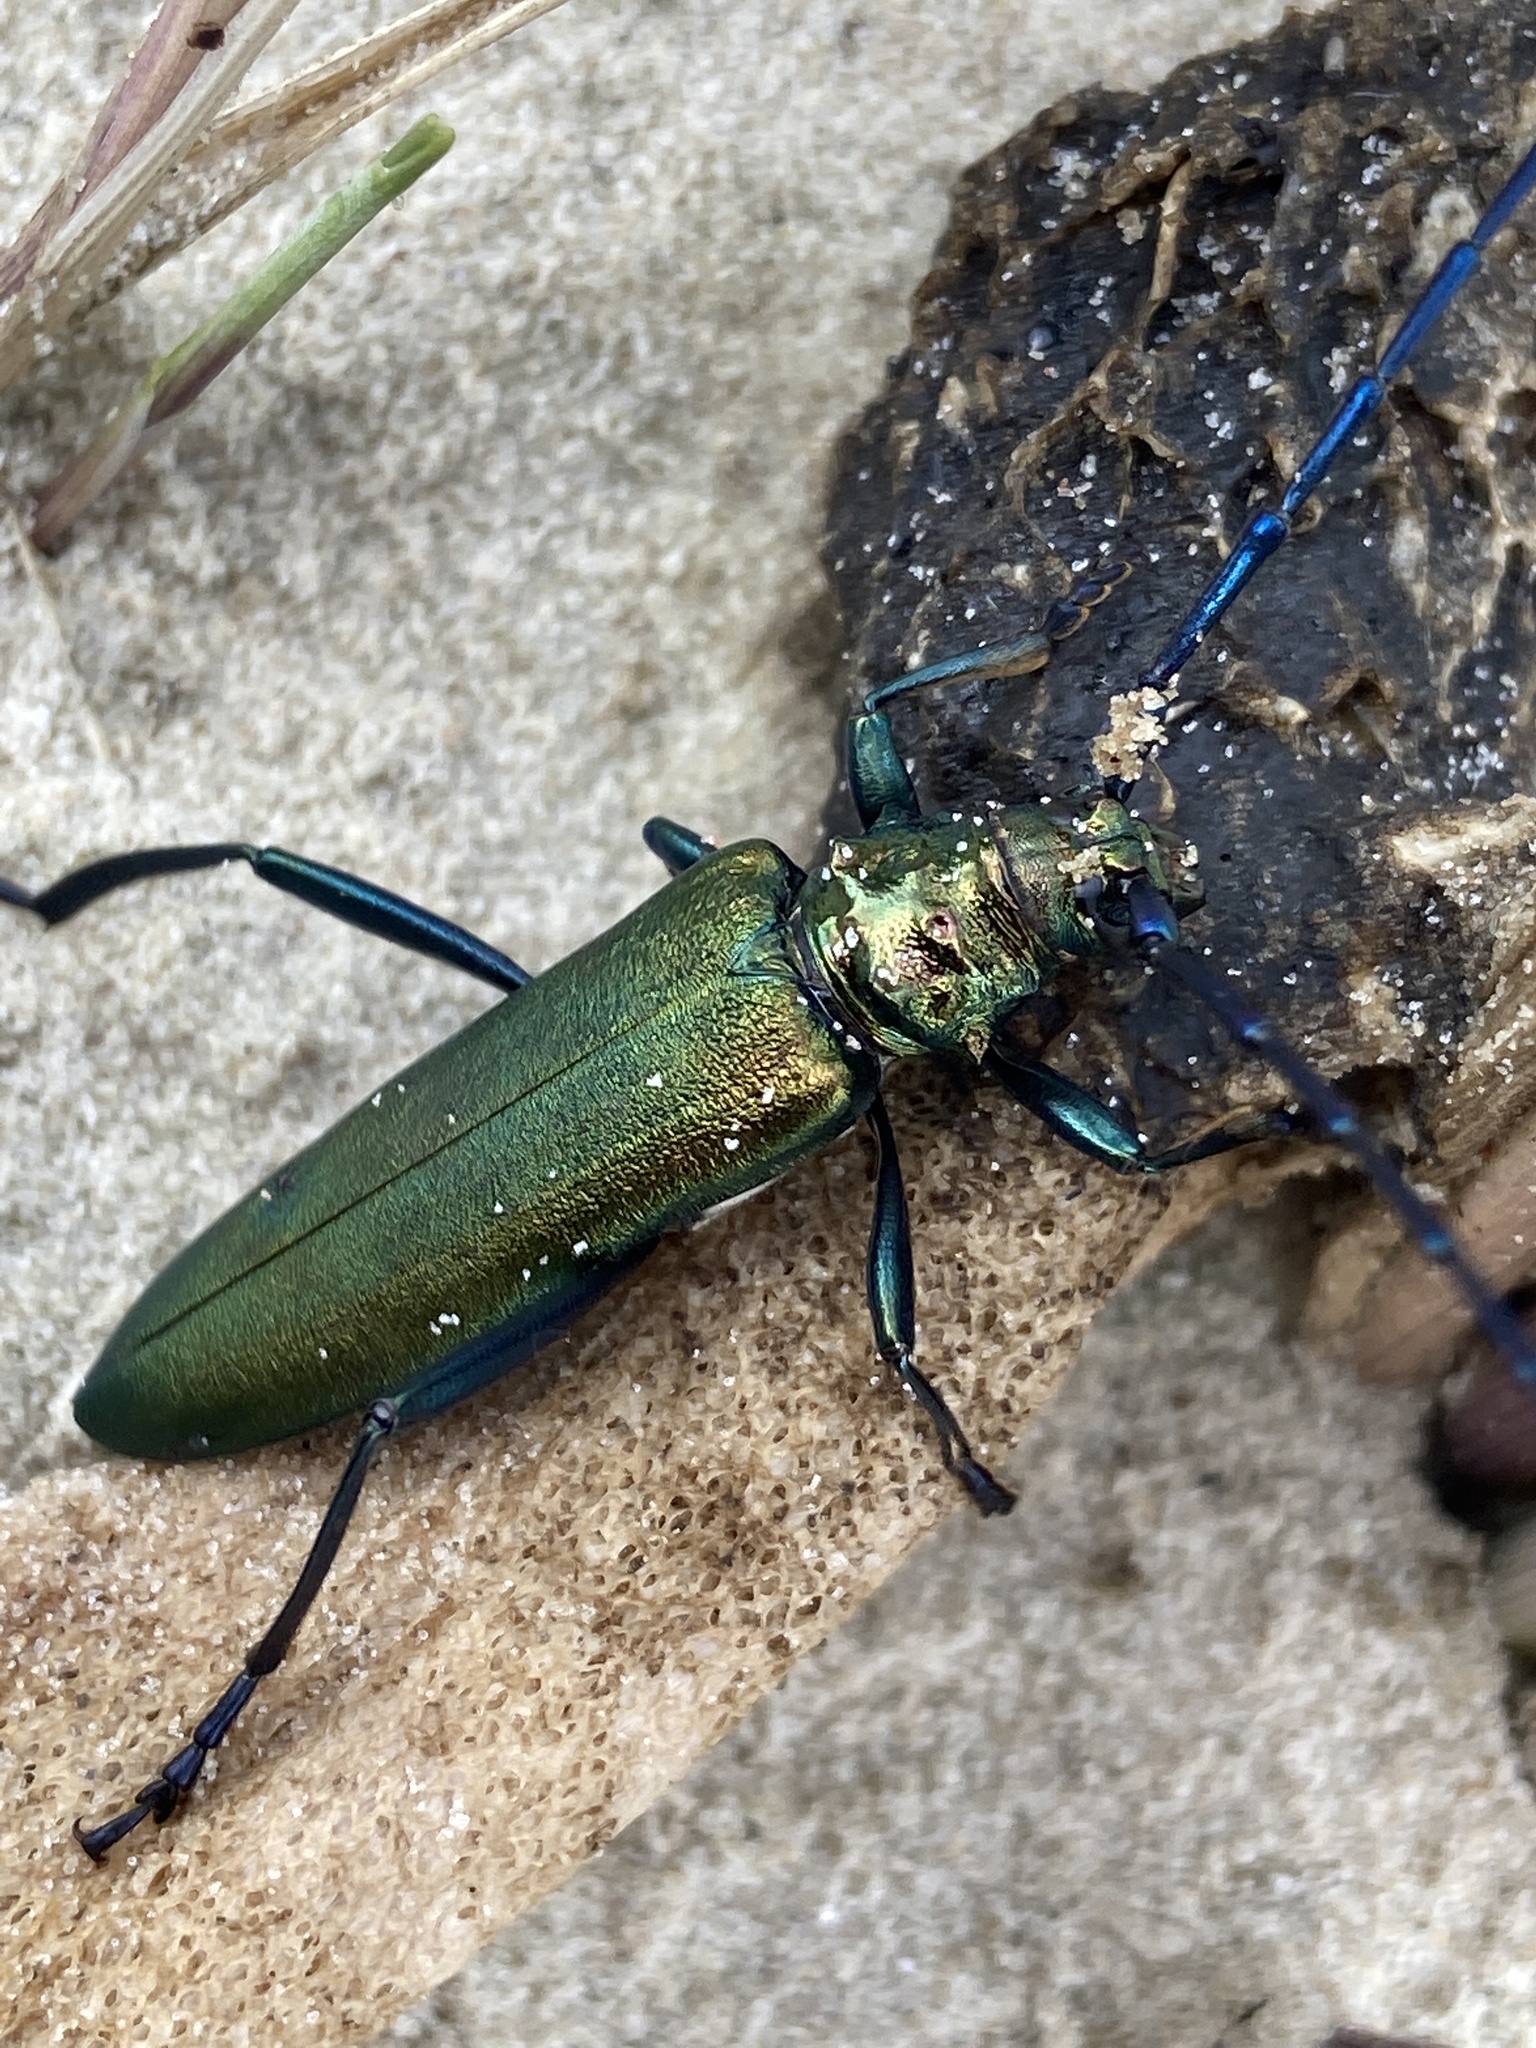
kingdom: Animalia
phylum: Arthropoda
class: Insecta
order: Coleoptera
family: Cerambycidae
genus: Aromia
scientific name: Aromia moschata
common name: Musk beetle
